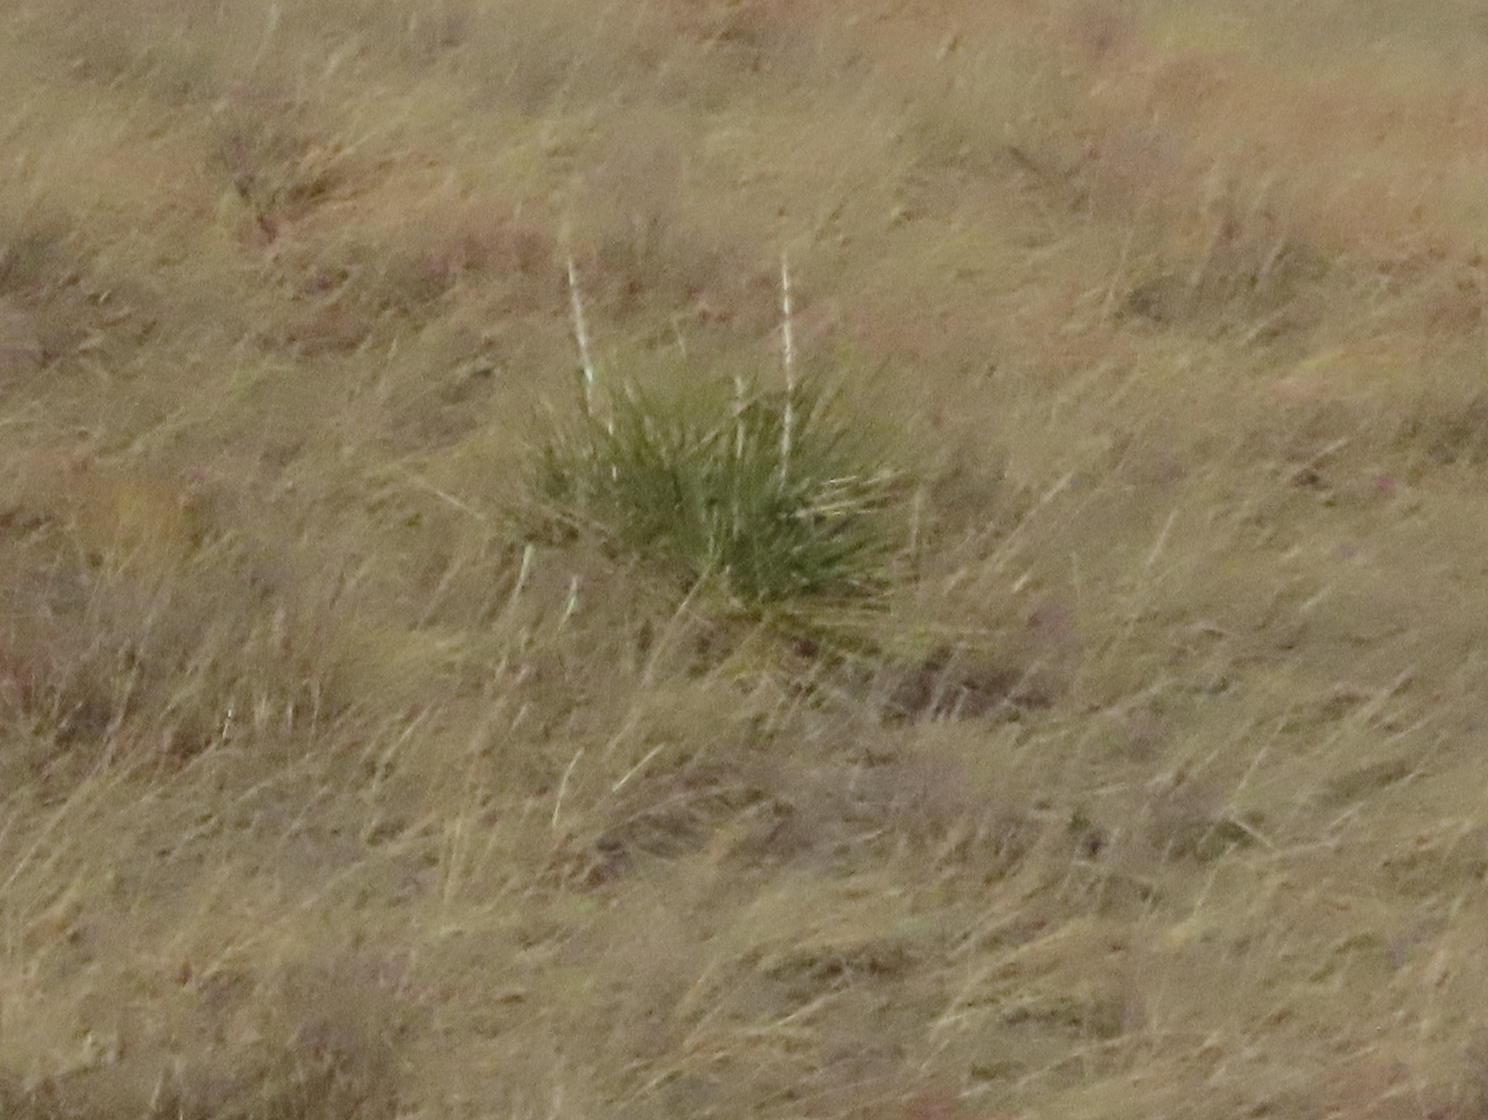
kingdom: Plantae
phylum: Tracheophyta
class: Liliopsida
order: Asparagales
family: Asparagaceae
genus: Yucca
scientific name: Yucca glauca
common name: Great plains yucca
